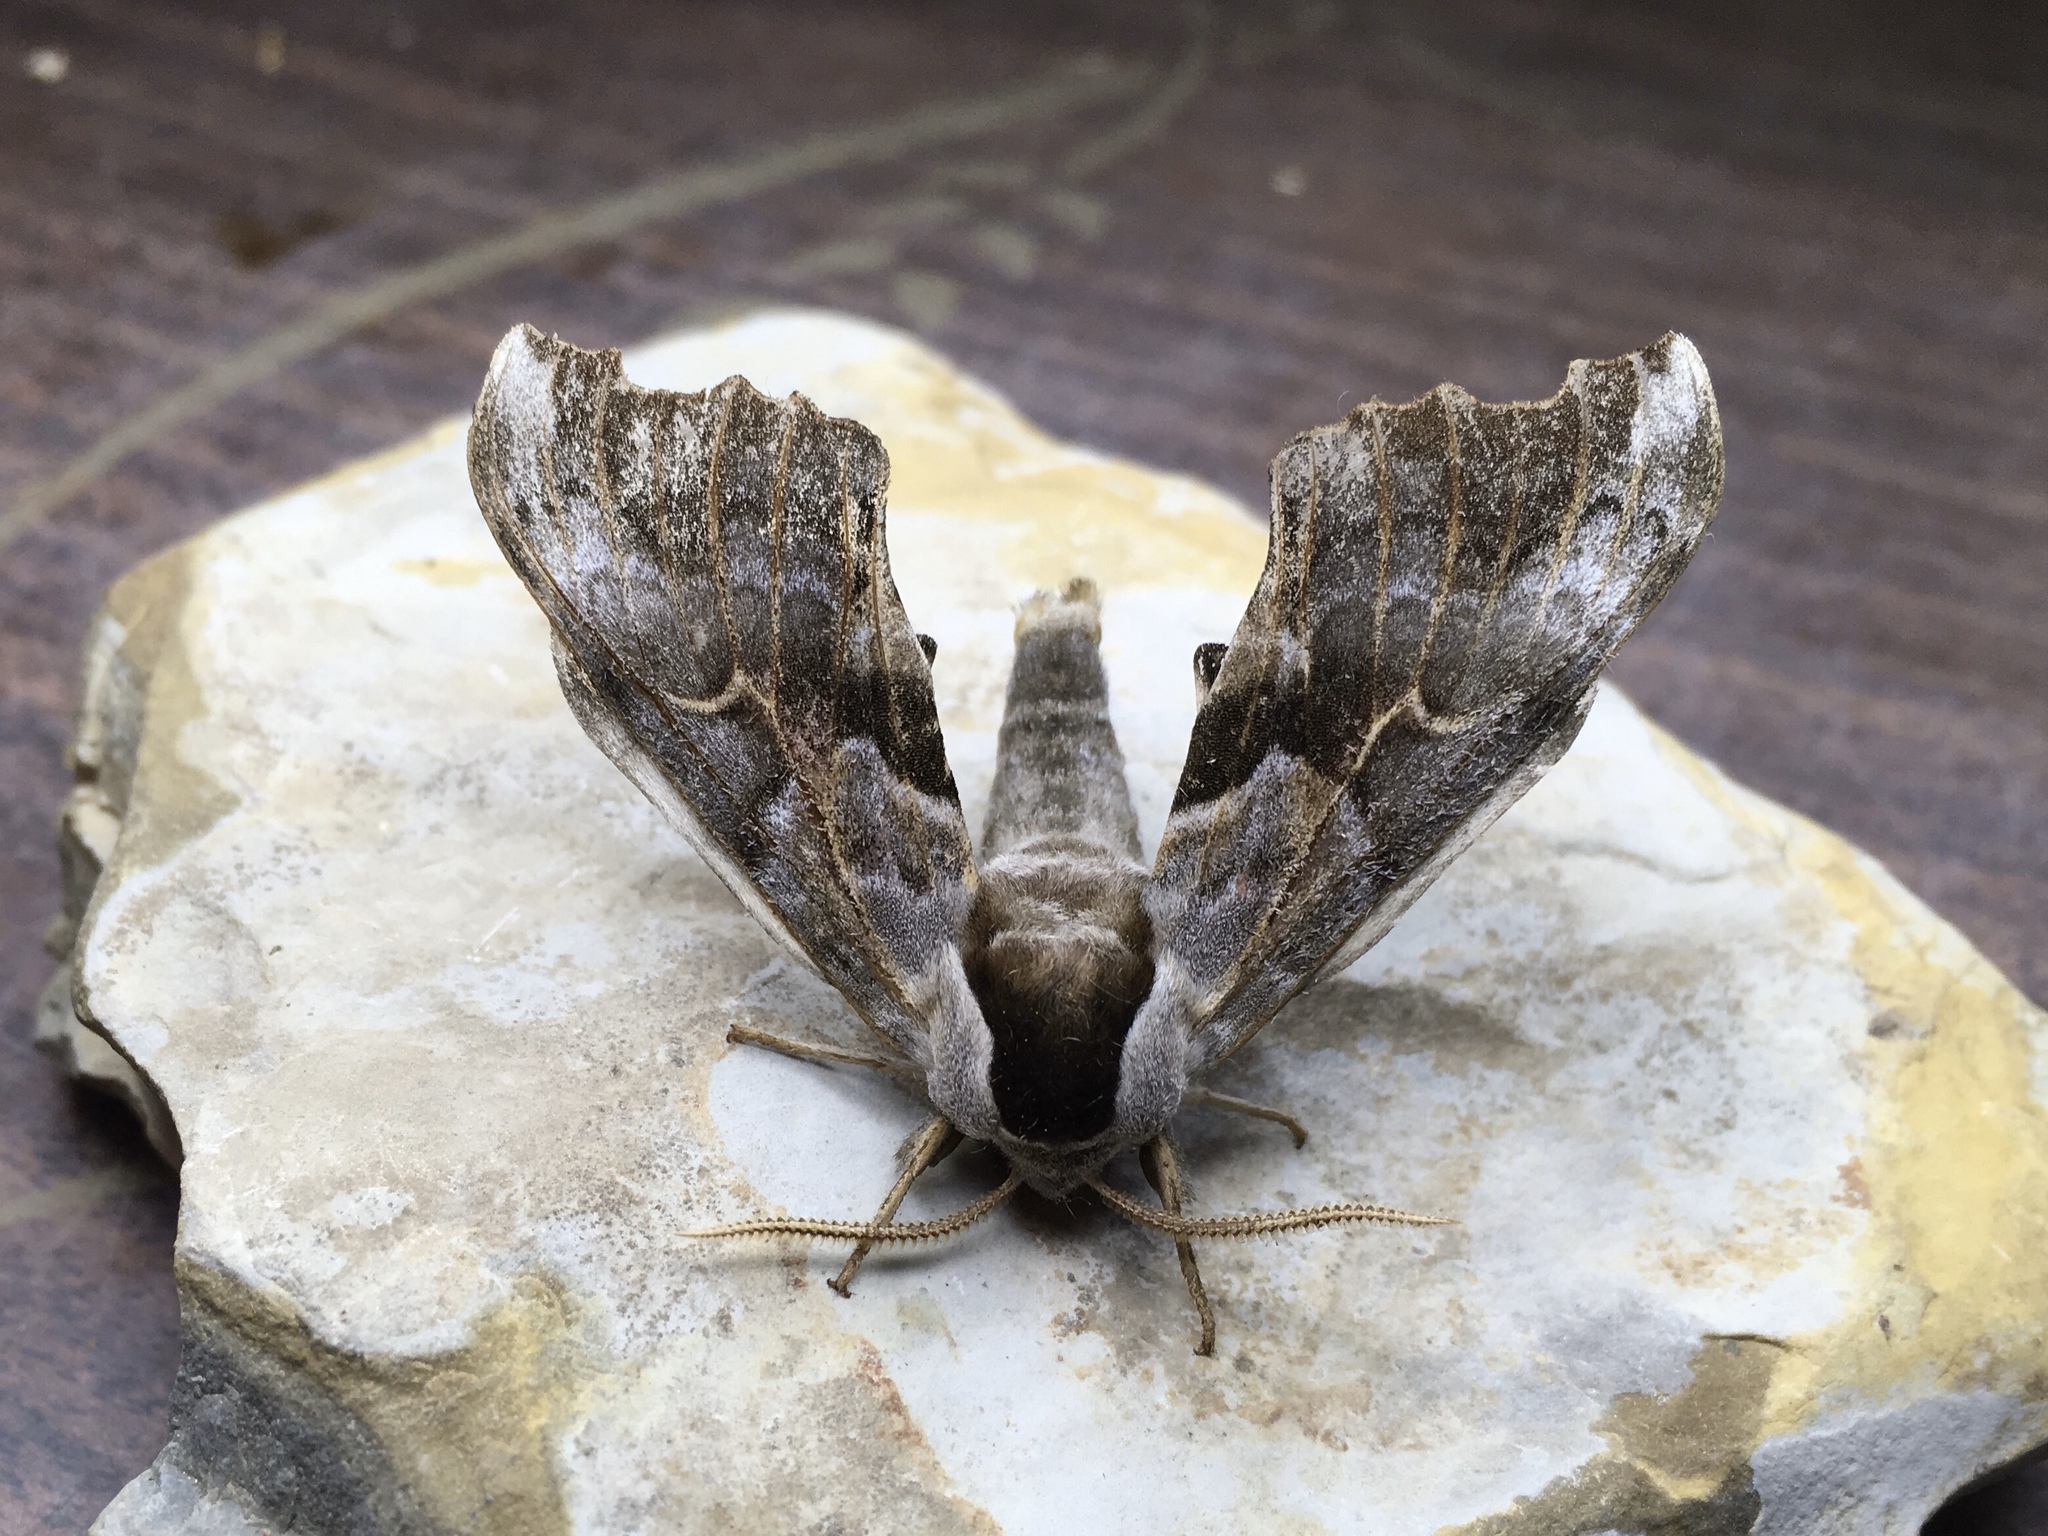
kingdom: Animalia
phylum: Arthropoda
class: Insecta
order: Lepidoptera
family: Sphingidae
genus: Smerinthus
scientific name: Smerinthus cerisyi
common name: Cerisy's sphinx moth
